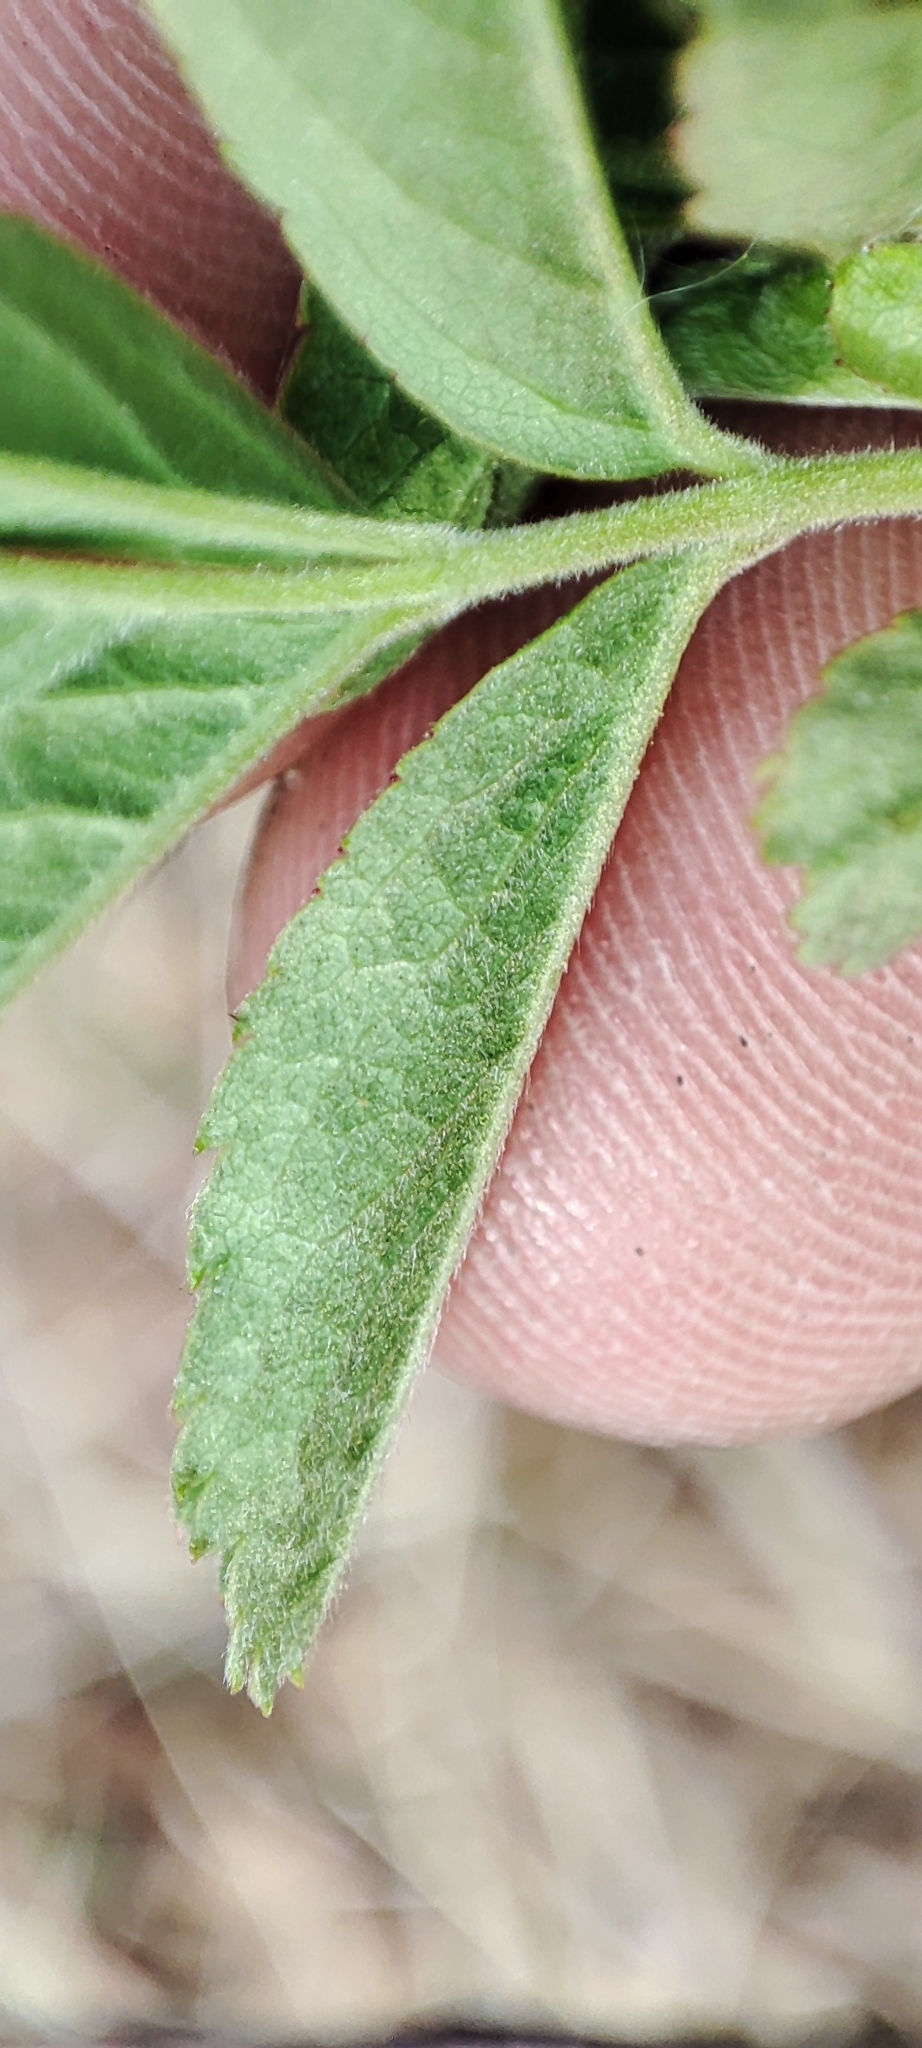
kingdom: Plantae
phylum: Tracheophyta
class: Magnoliopsida
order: Rosales
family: Rosaceae
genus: Rosa
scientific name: Rosa majalis
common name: Cinnamon rose
